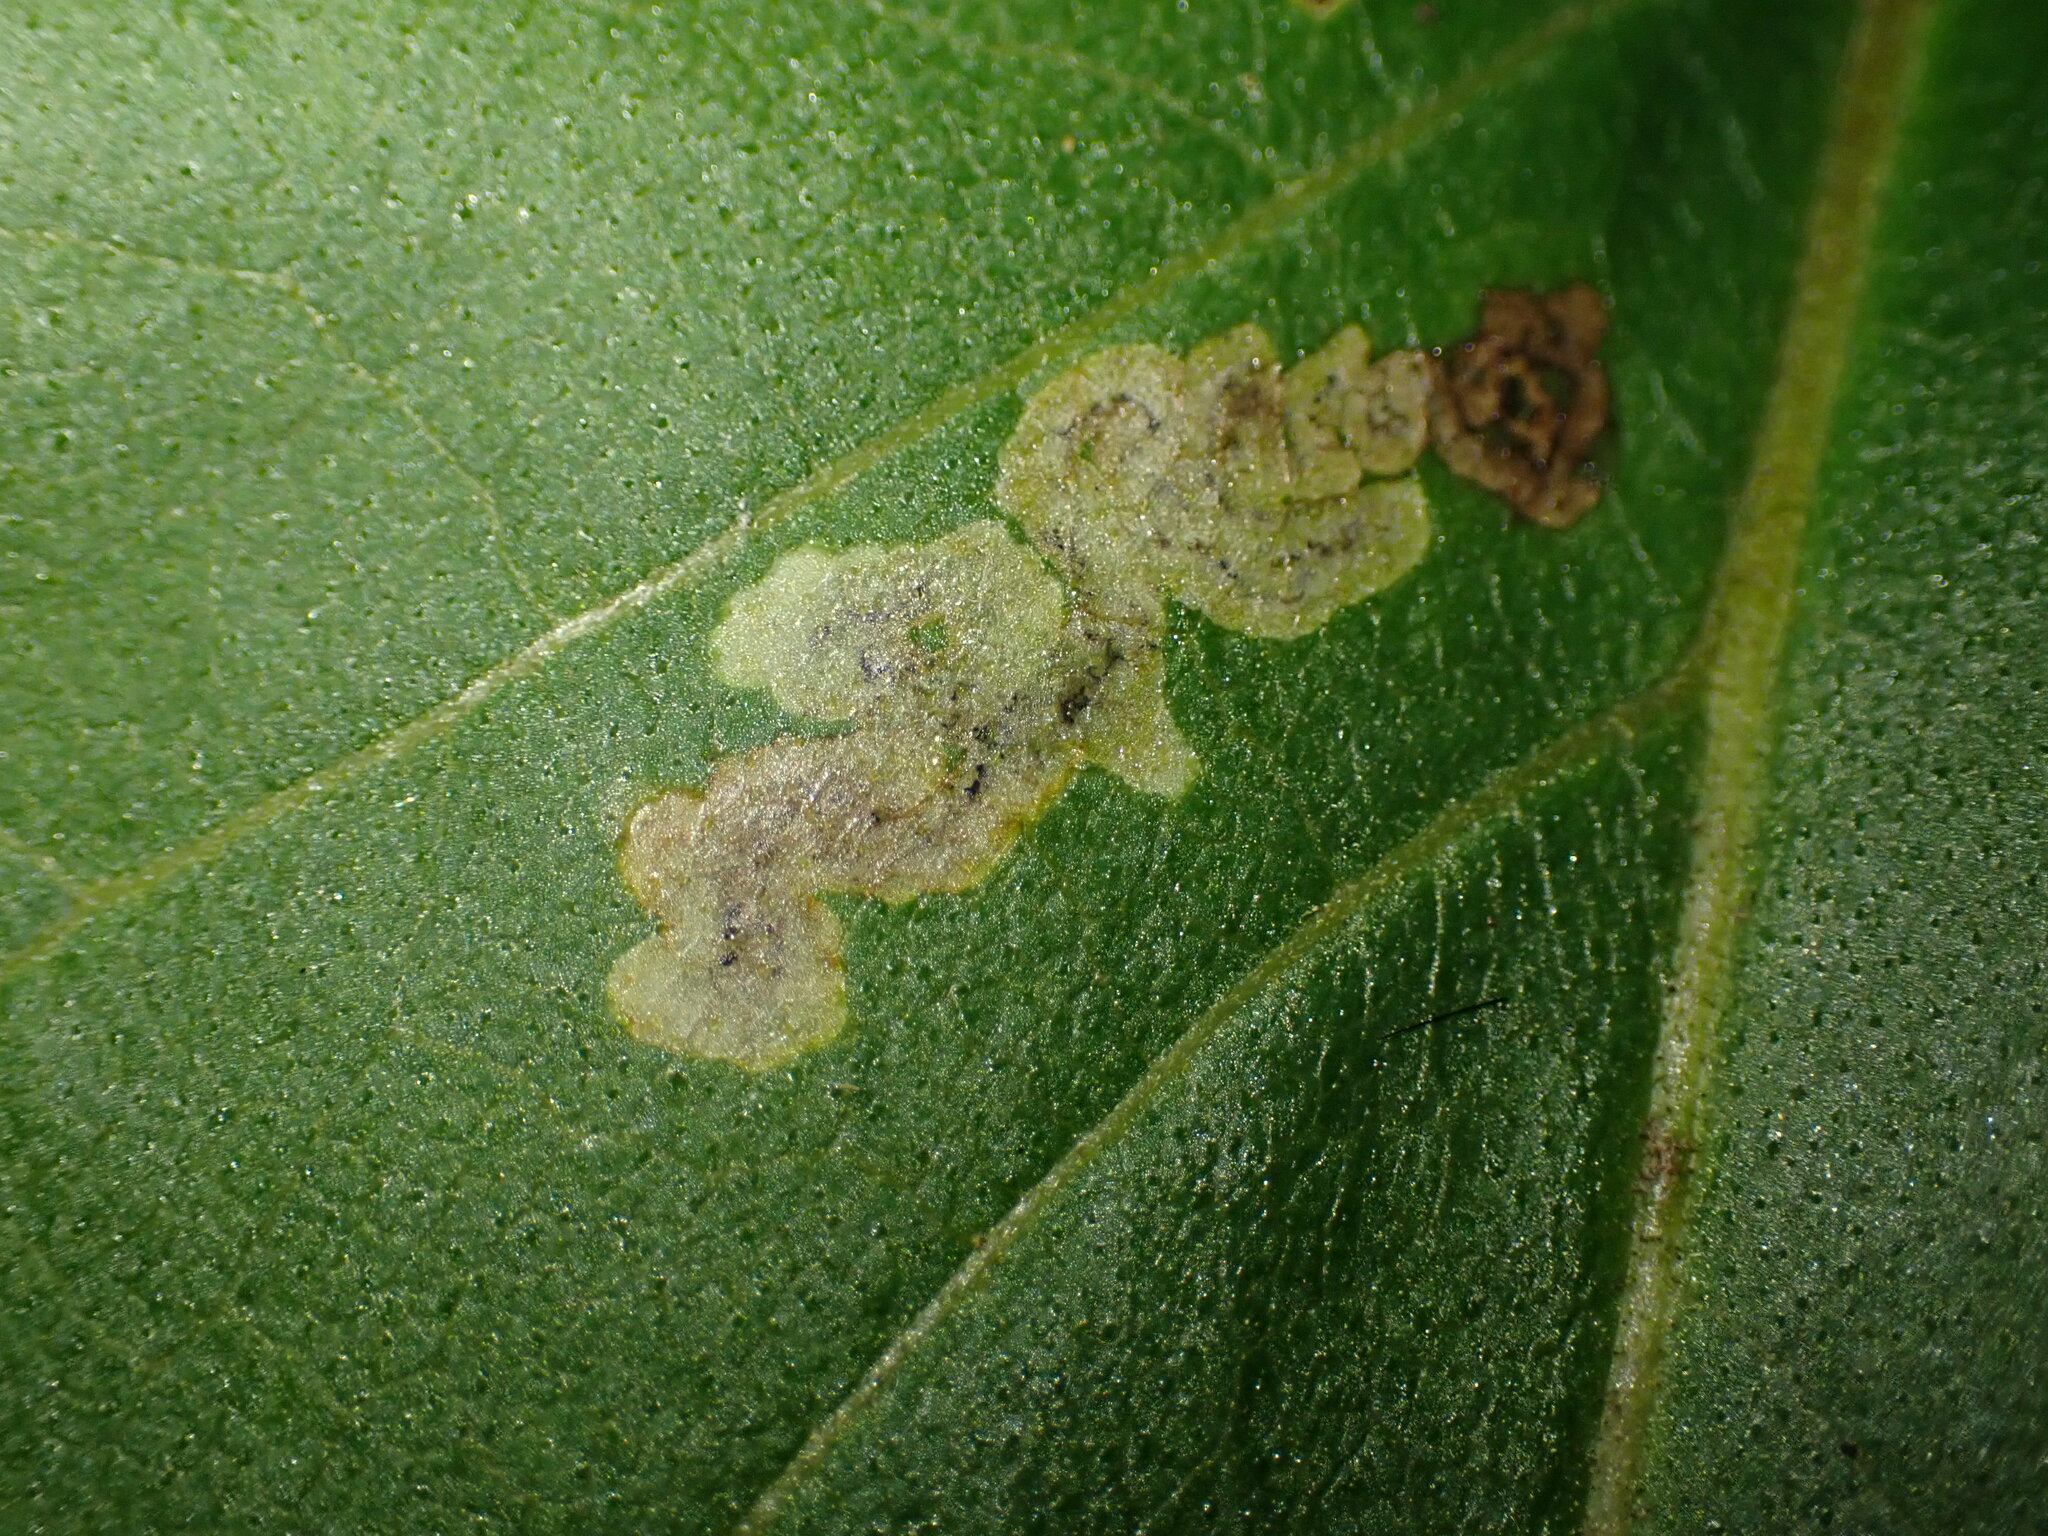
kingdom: Animalia
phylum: Arthropoda
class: Insecta
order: Diptera
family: Agromyzidae
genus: Liriomyza
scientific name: Liriomyza ivorcutleri
